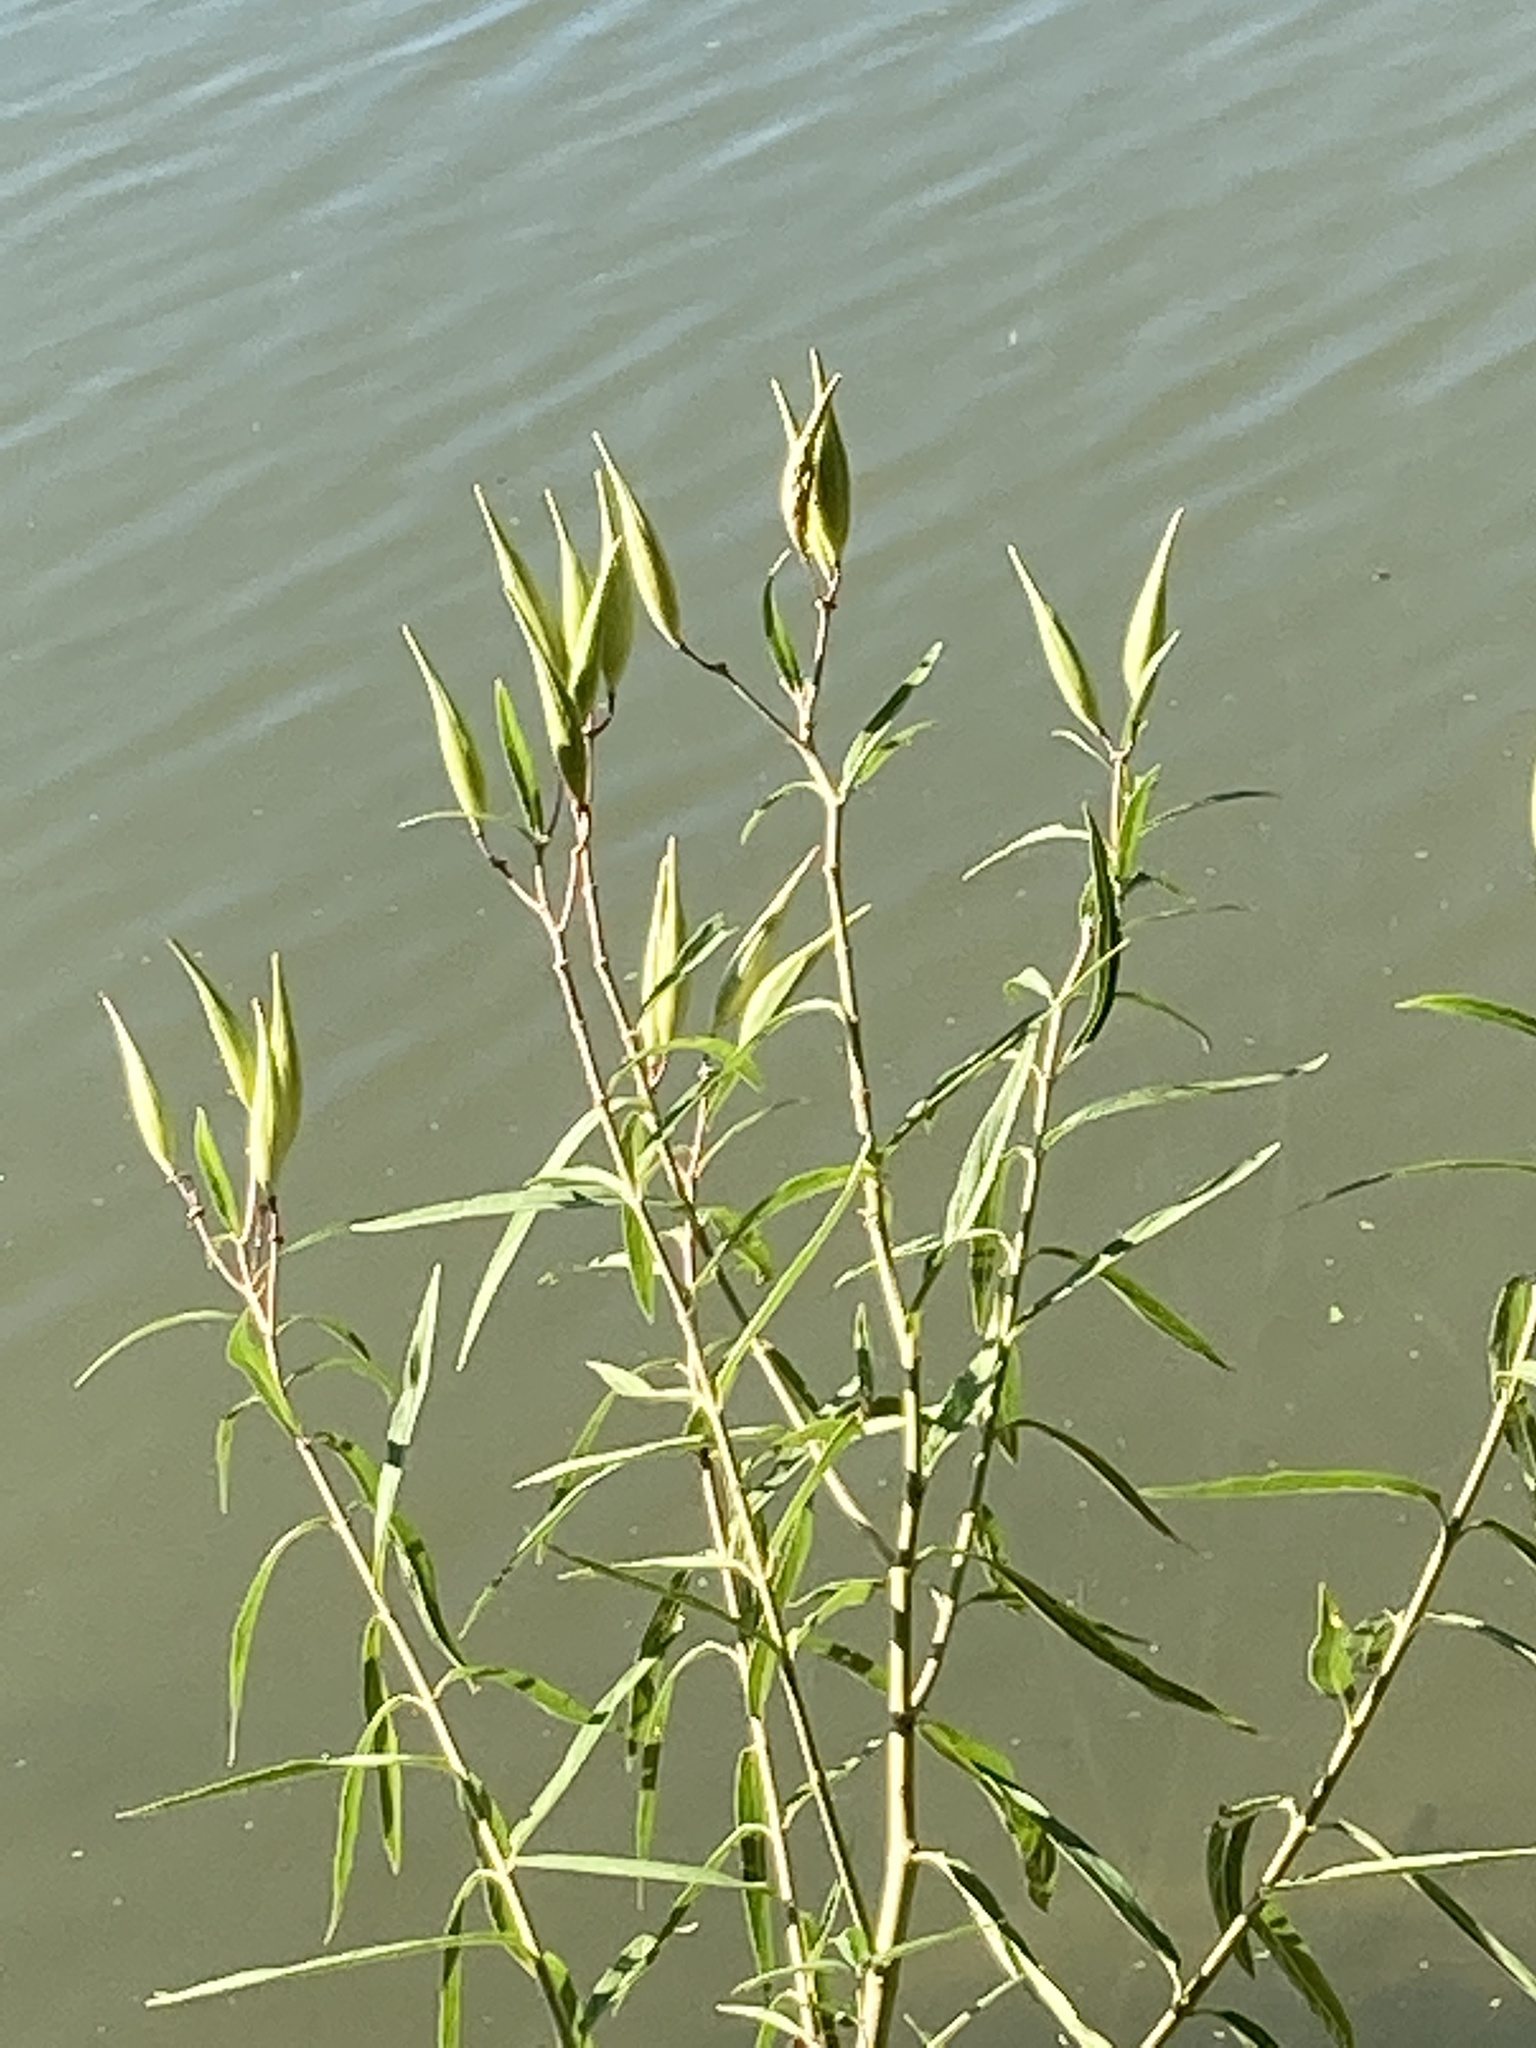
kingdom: Plantae
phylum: Tracheophyta
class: Magnoliopsida
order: Gentianales
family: Apocynaceae
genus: Asclepias
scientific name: Asclepias incarnata
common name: Swamp milkweed
